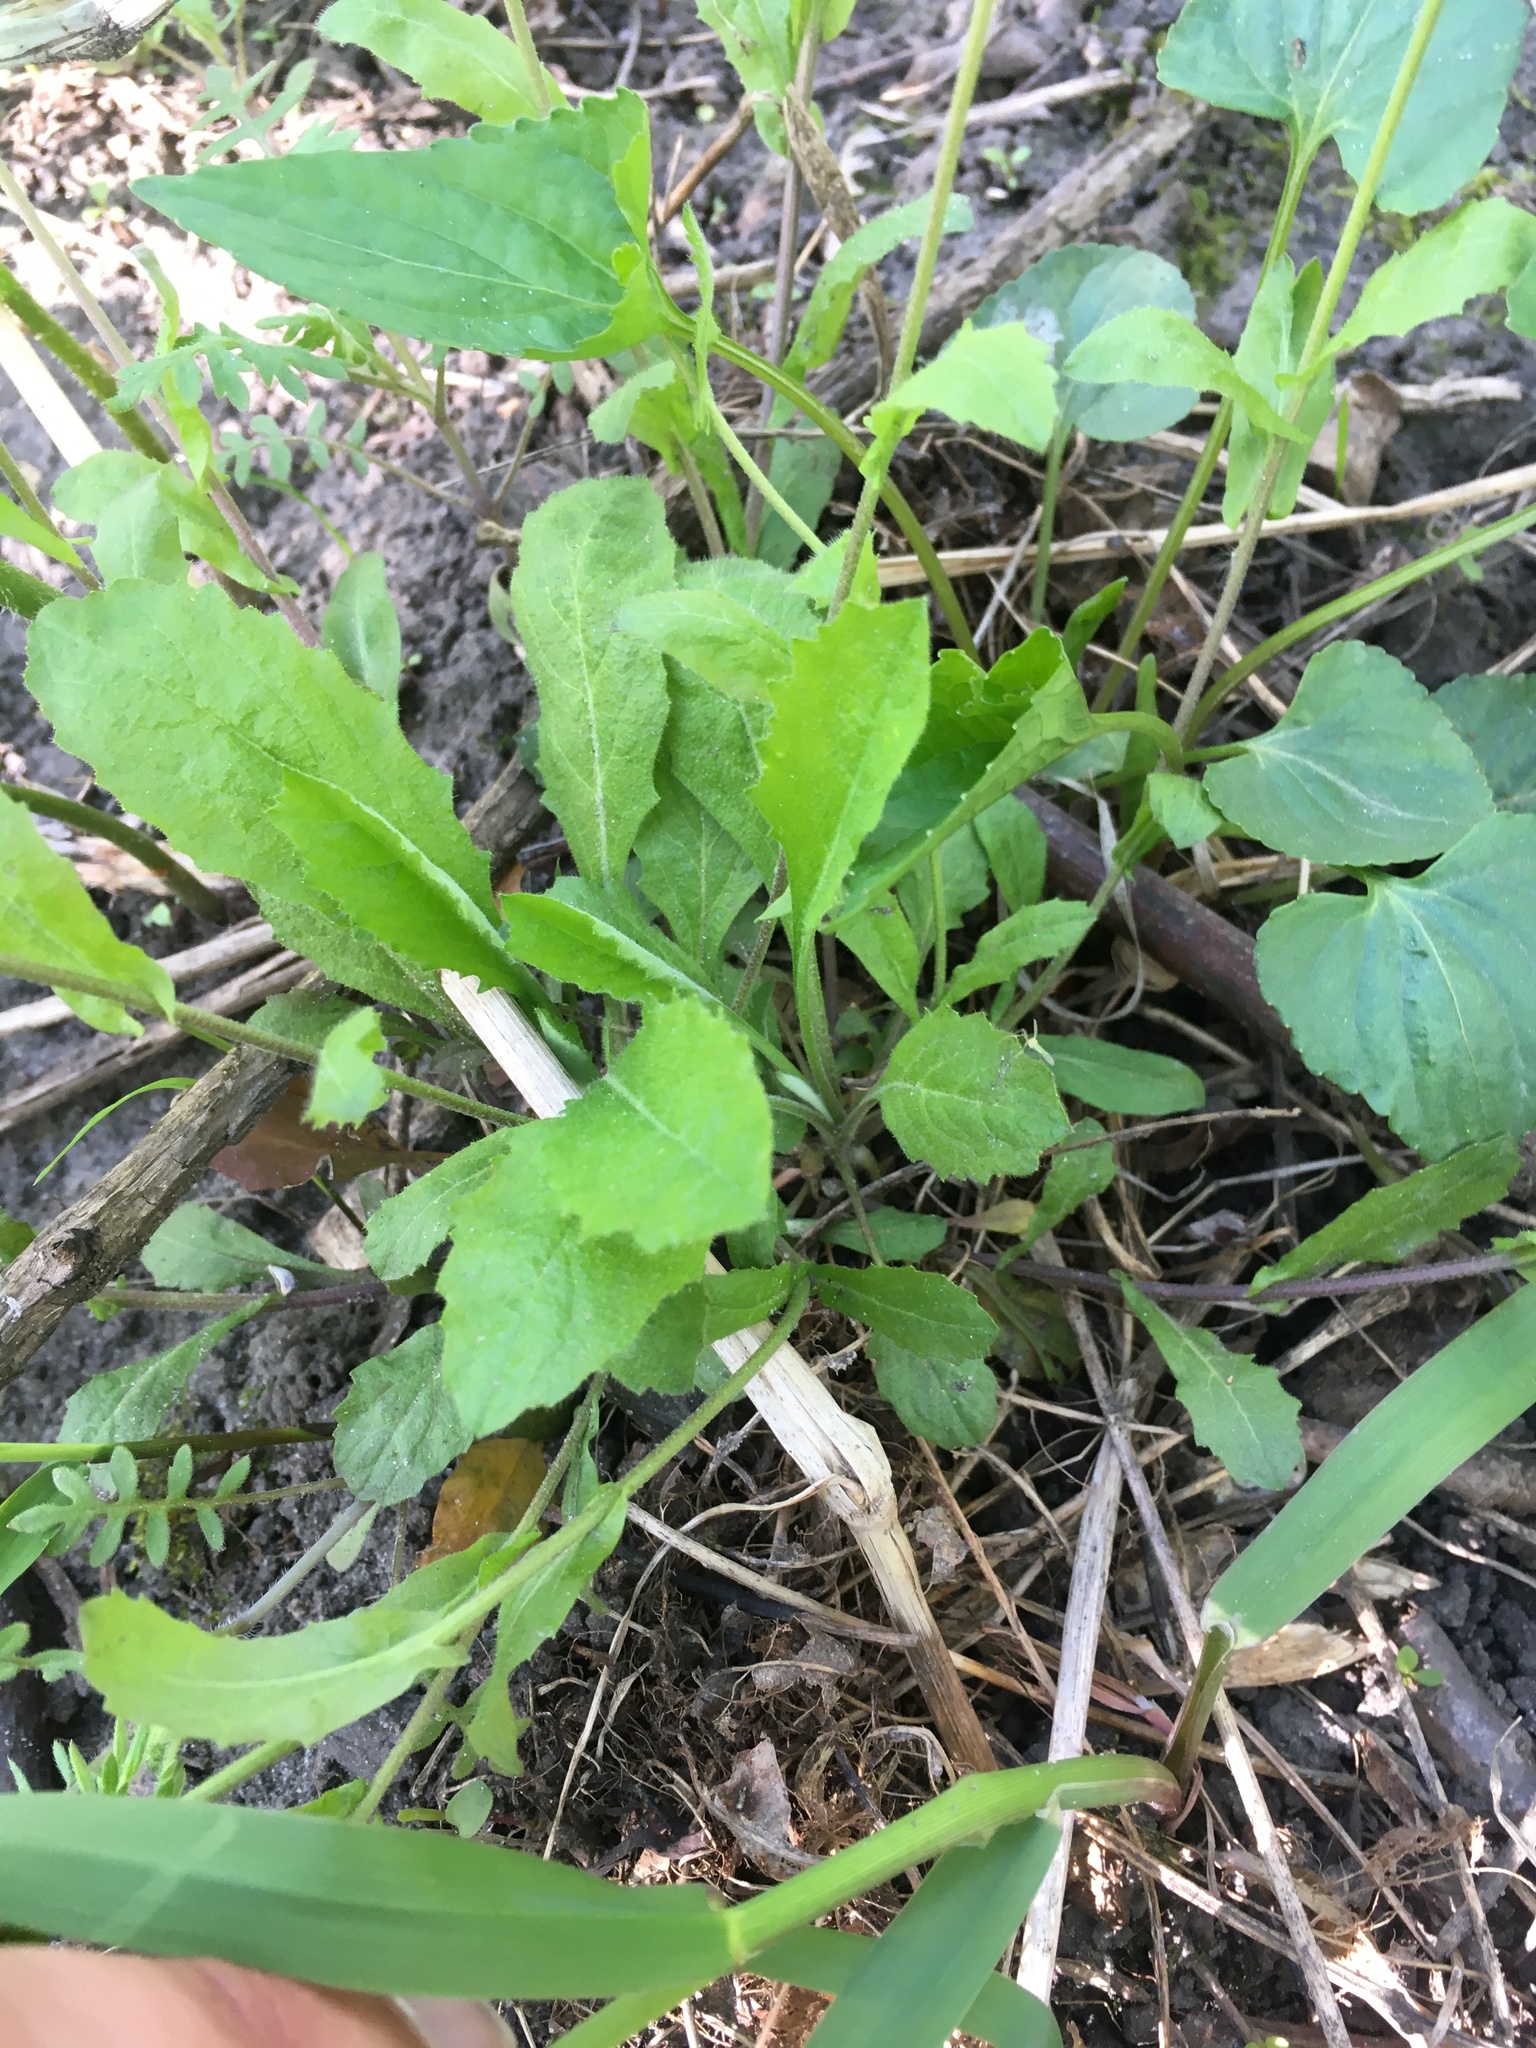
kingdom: Plantae
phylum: Tracheophyta
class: Magnoliopsida
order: Brassicales
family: Brassicaceae
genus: Borodinia
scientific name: Borodinia dentata
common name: Short's rockcress
